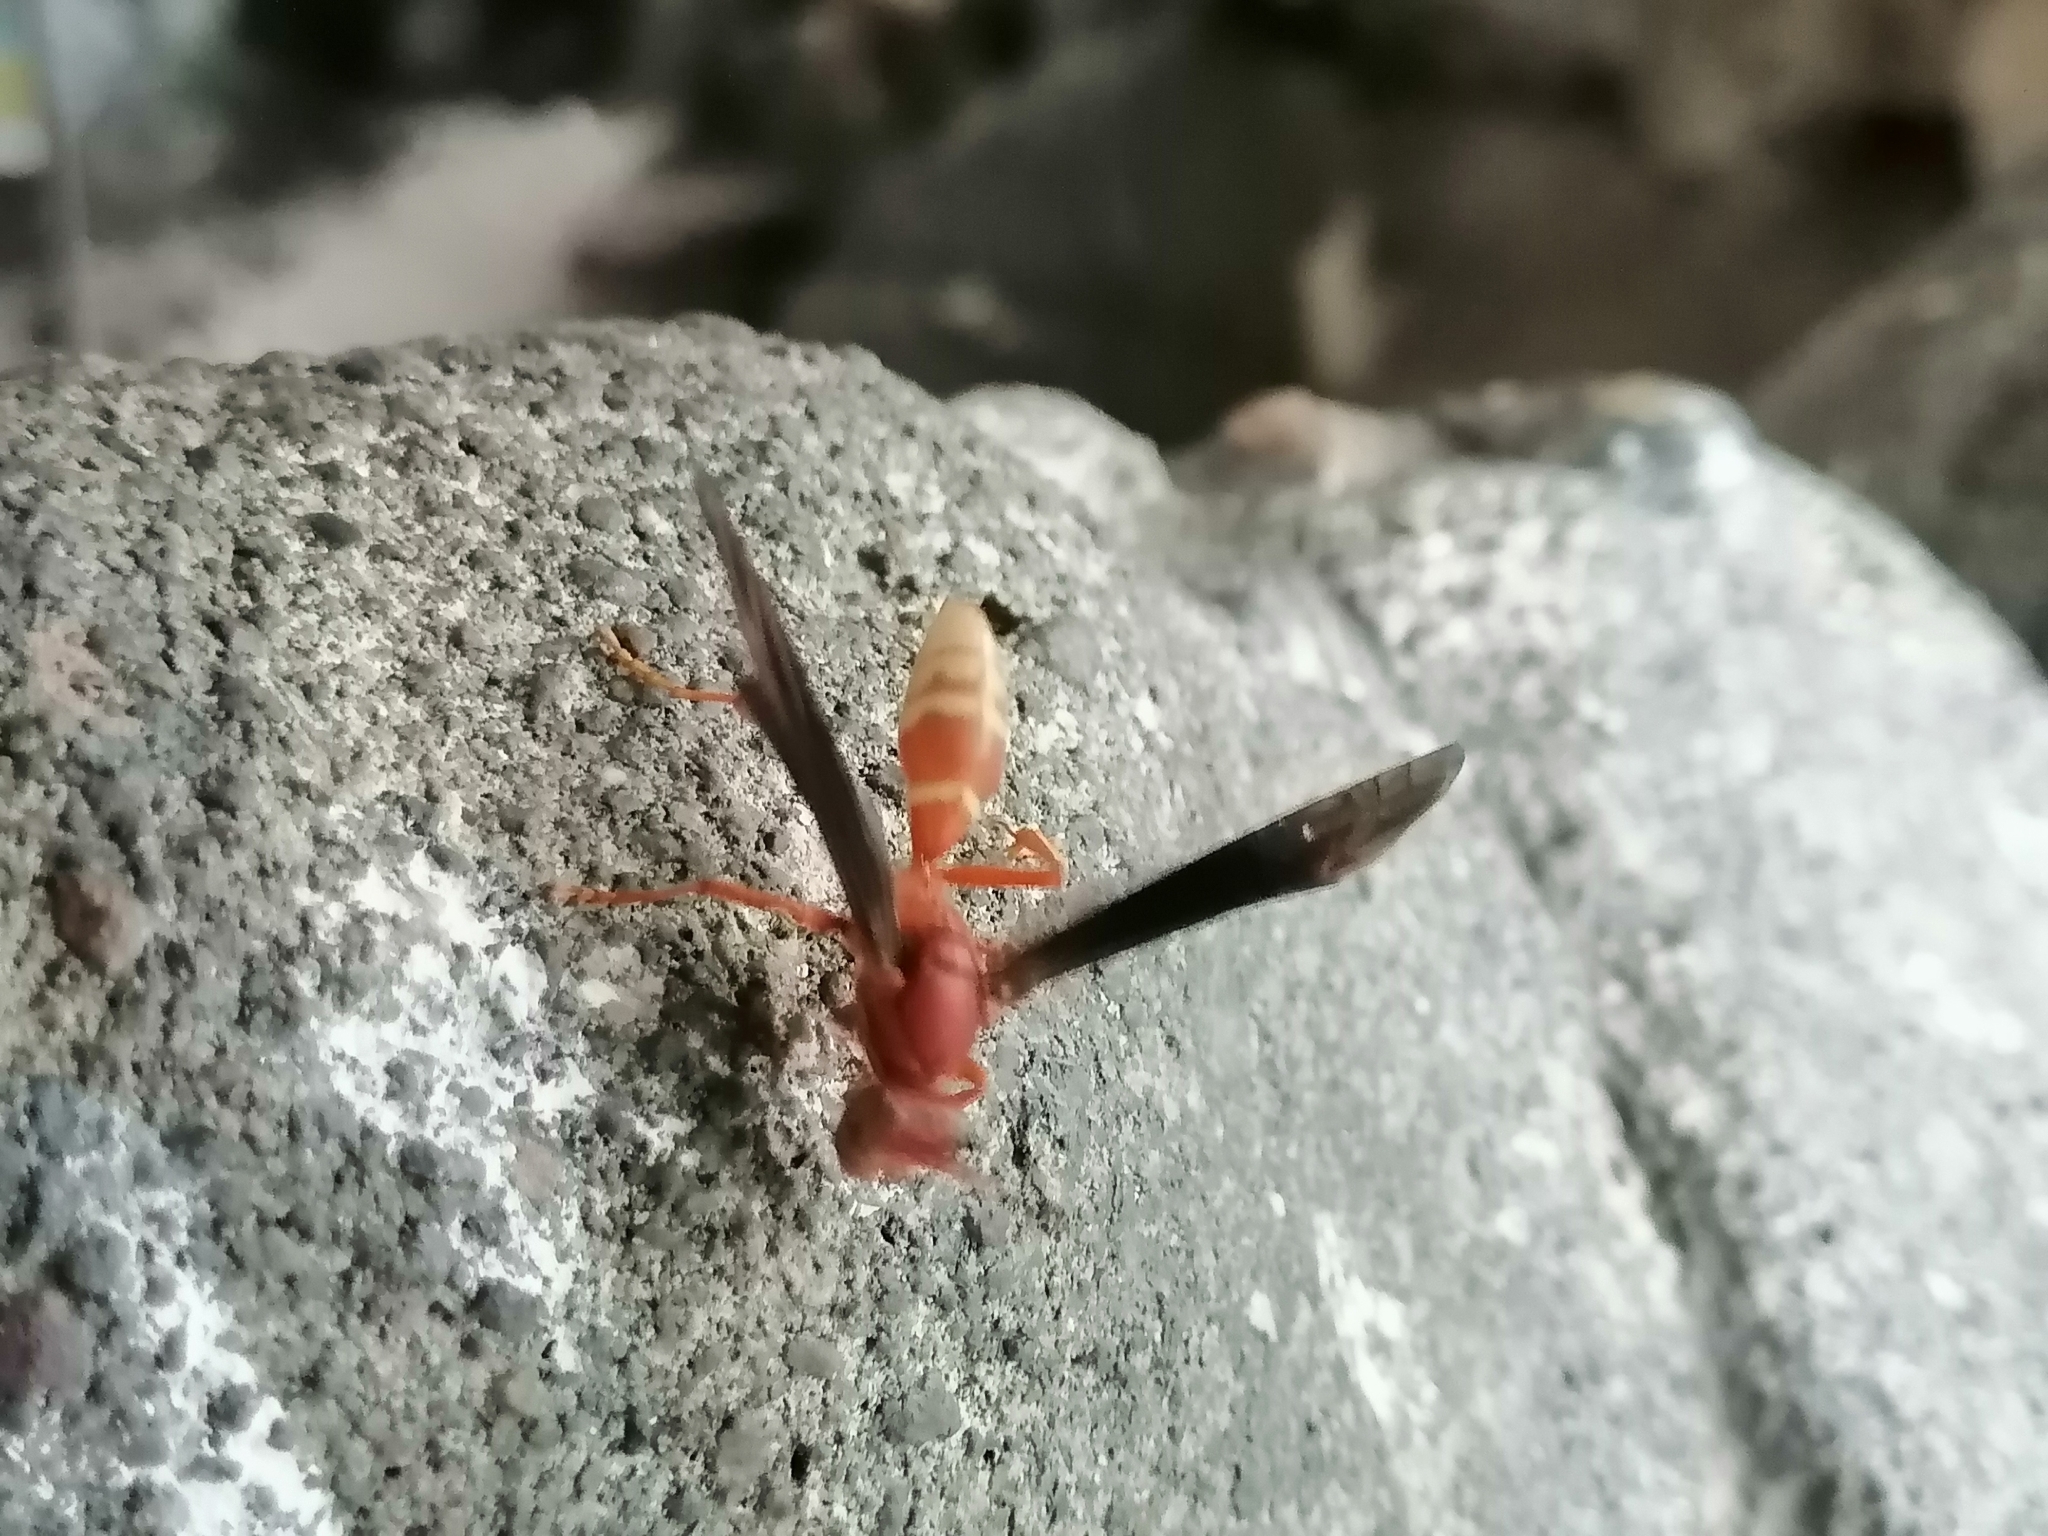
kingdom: Animalia
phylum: Arthropoda
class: Insecta
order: Hymenoptera
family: Eumenidae
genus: Polistes
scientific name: Polistes mexicanus
